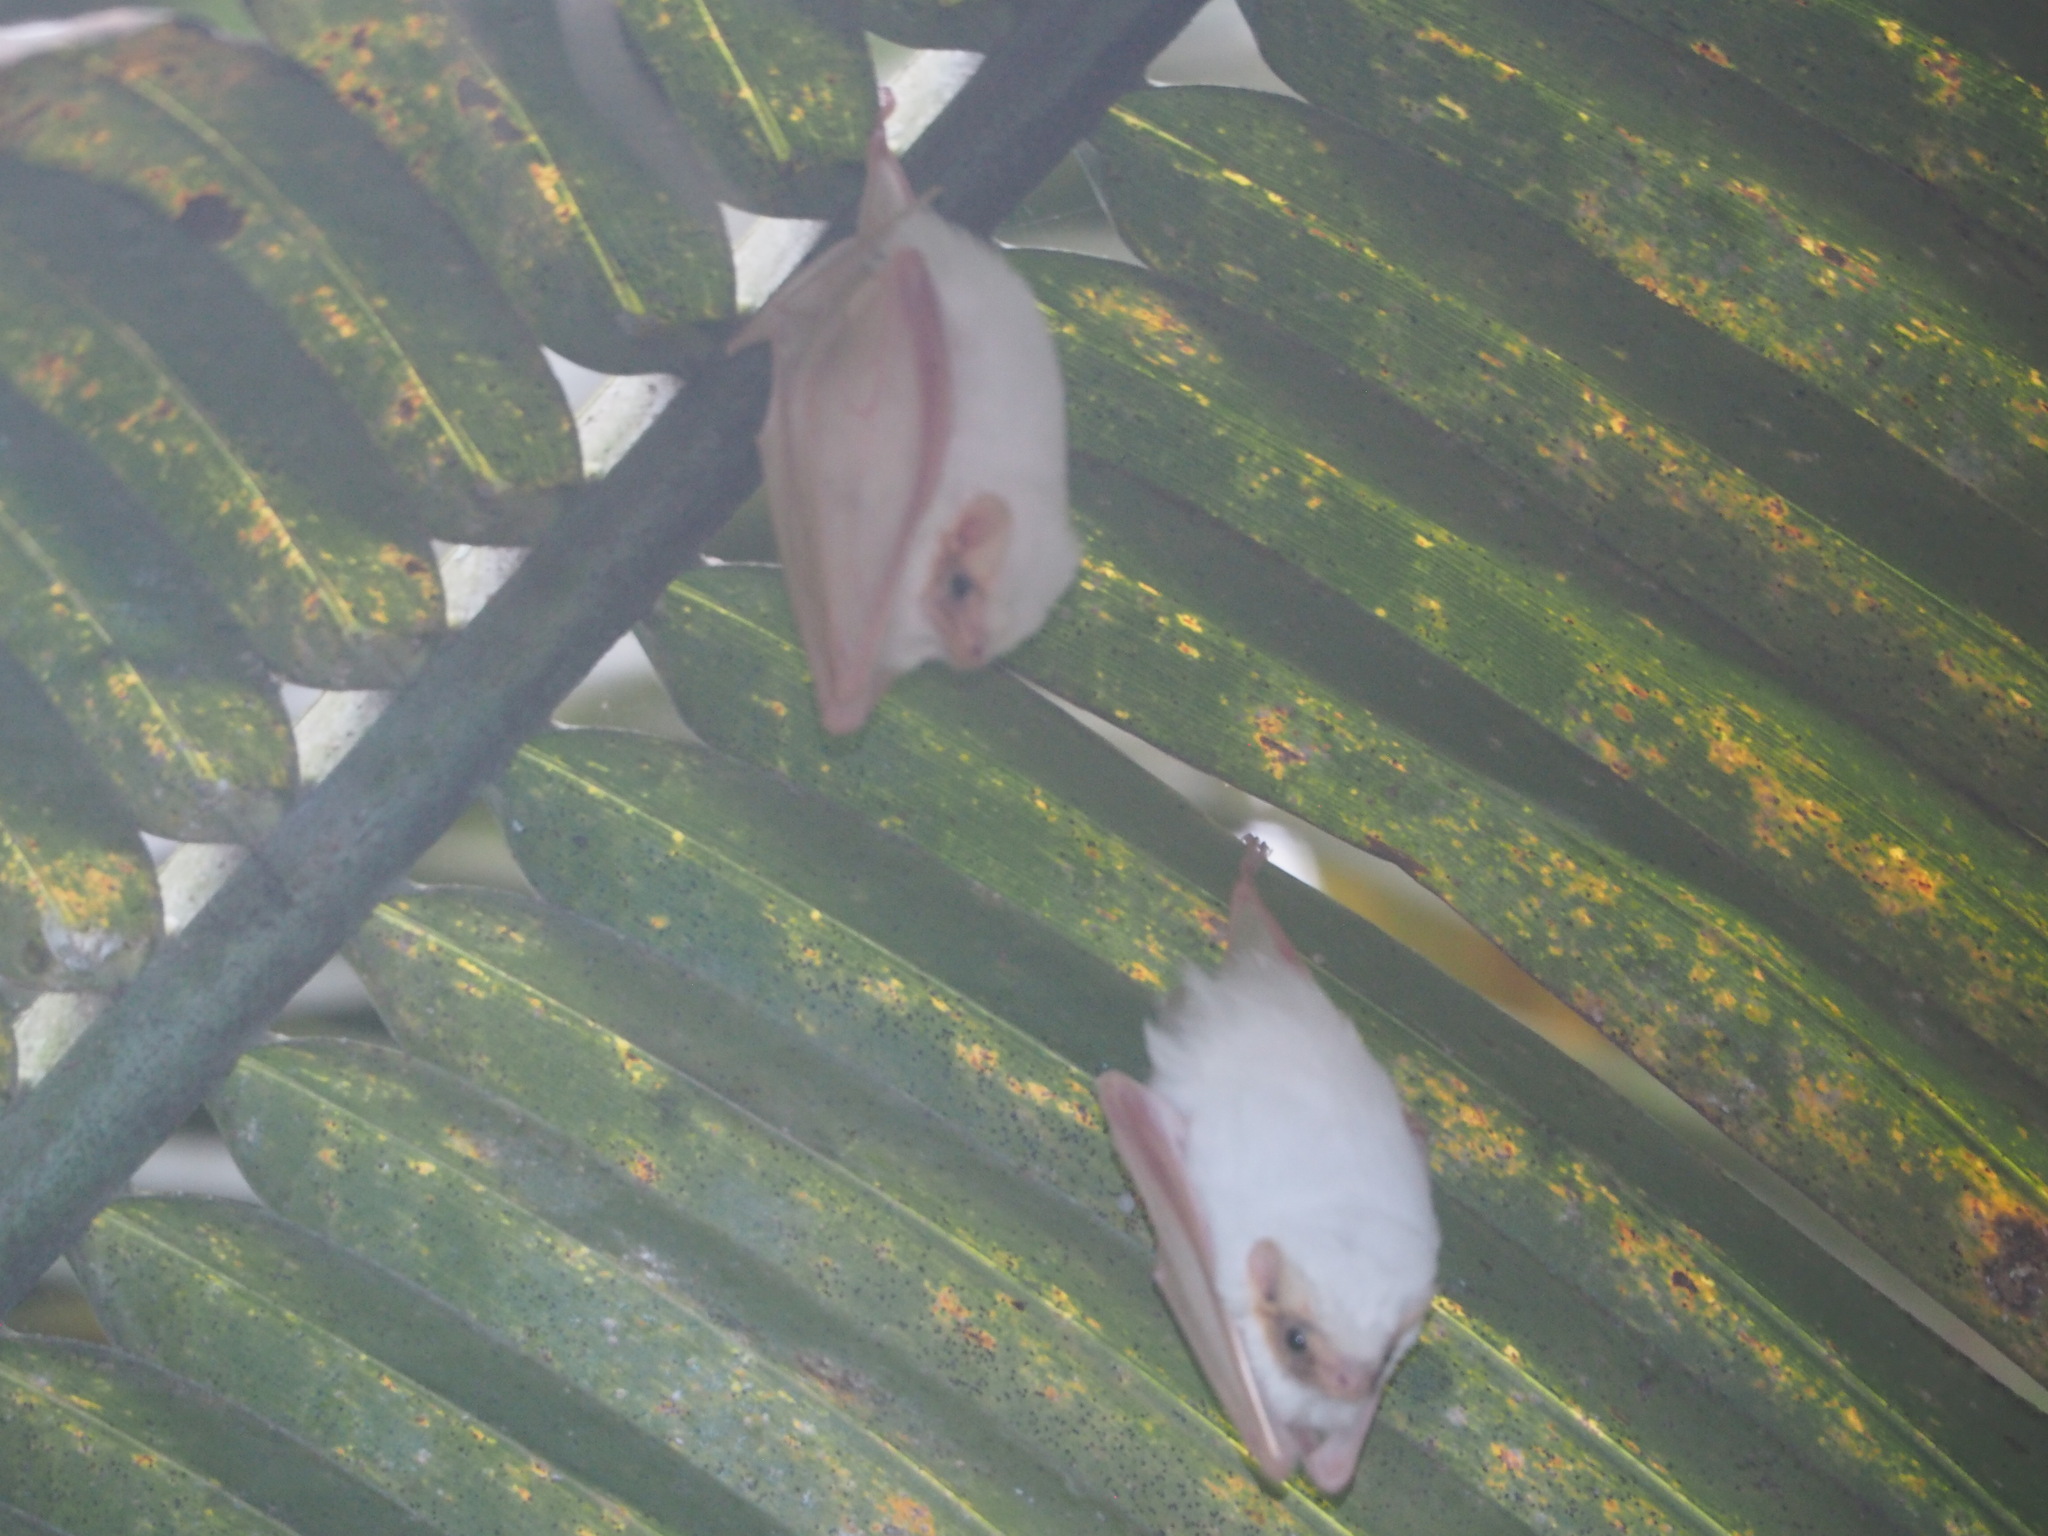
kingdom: Animalia
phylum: Chordata
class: Mammalia
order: Chiroptera
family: Emballonuridae
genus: Diclidurus
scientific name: Diclidurus albus
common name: Northern ghost bat
